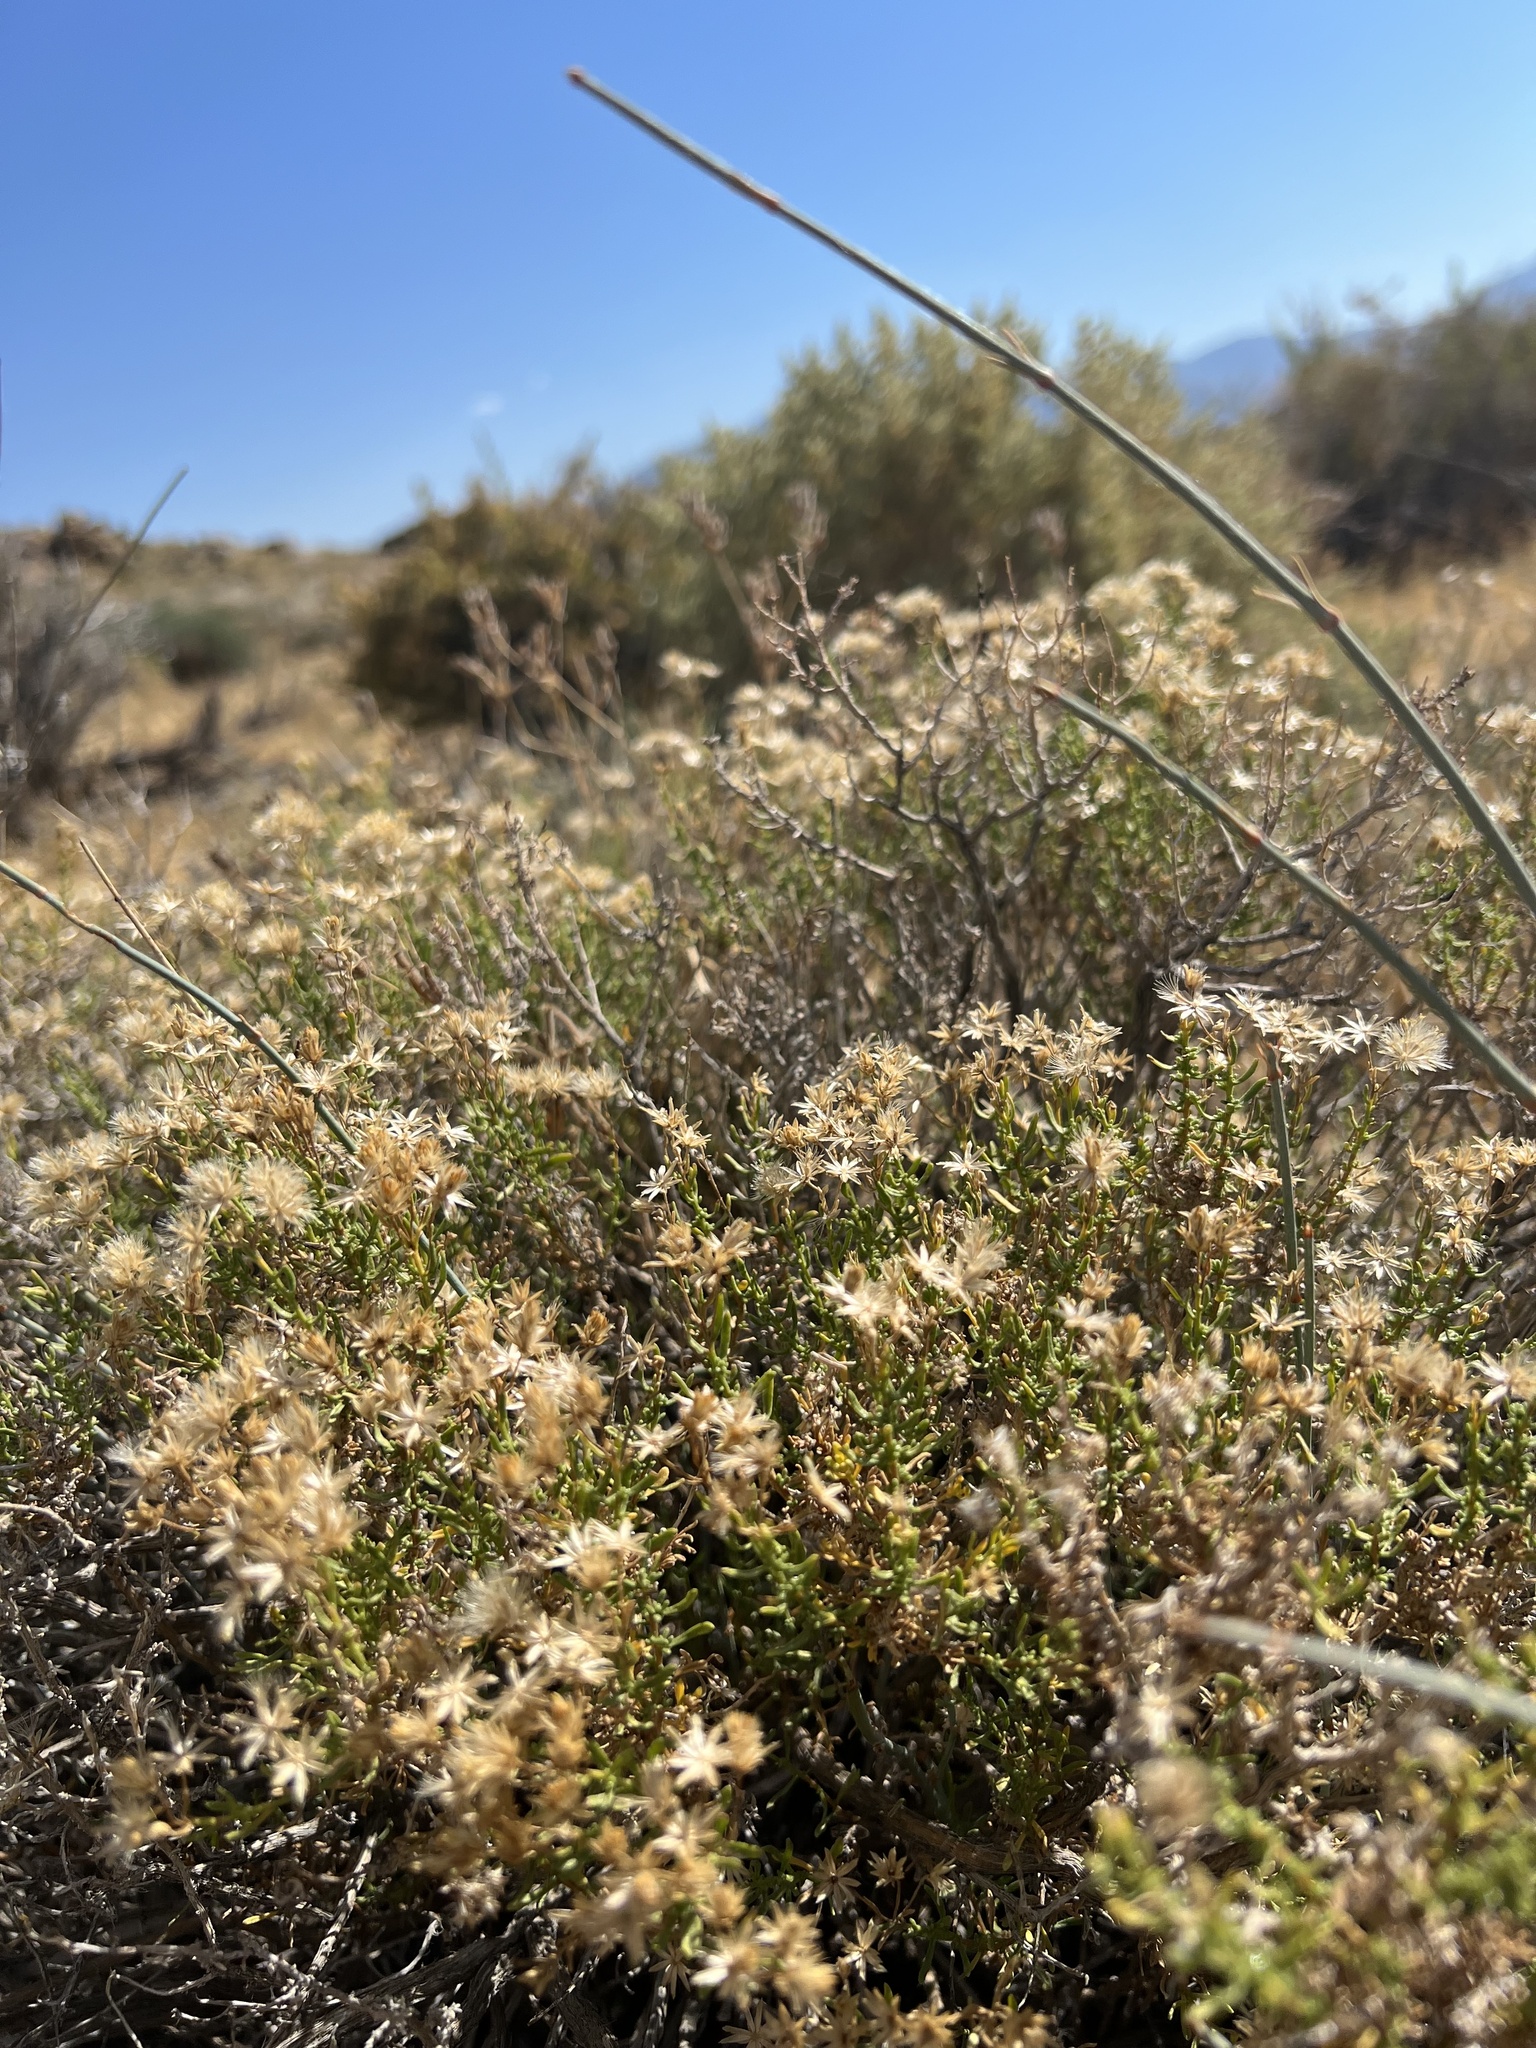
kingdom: Plantae
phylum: Tracheophyta
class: Magnoliopsida
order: Asterales
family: Asteraceae
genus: Ericameria
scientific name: Ericameria cooperi
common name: Cooper's goldenbush
